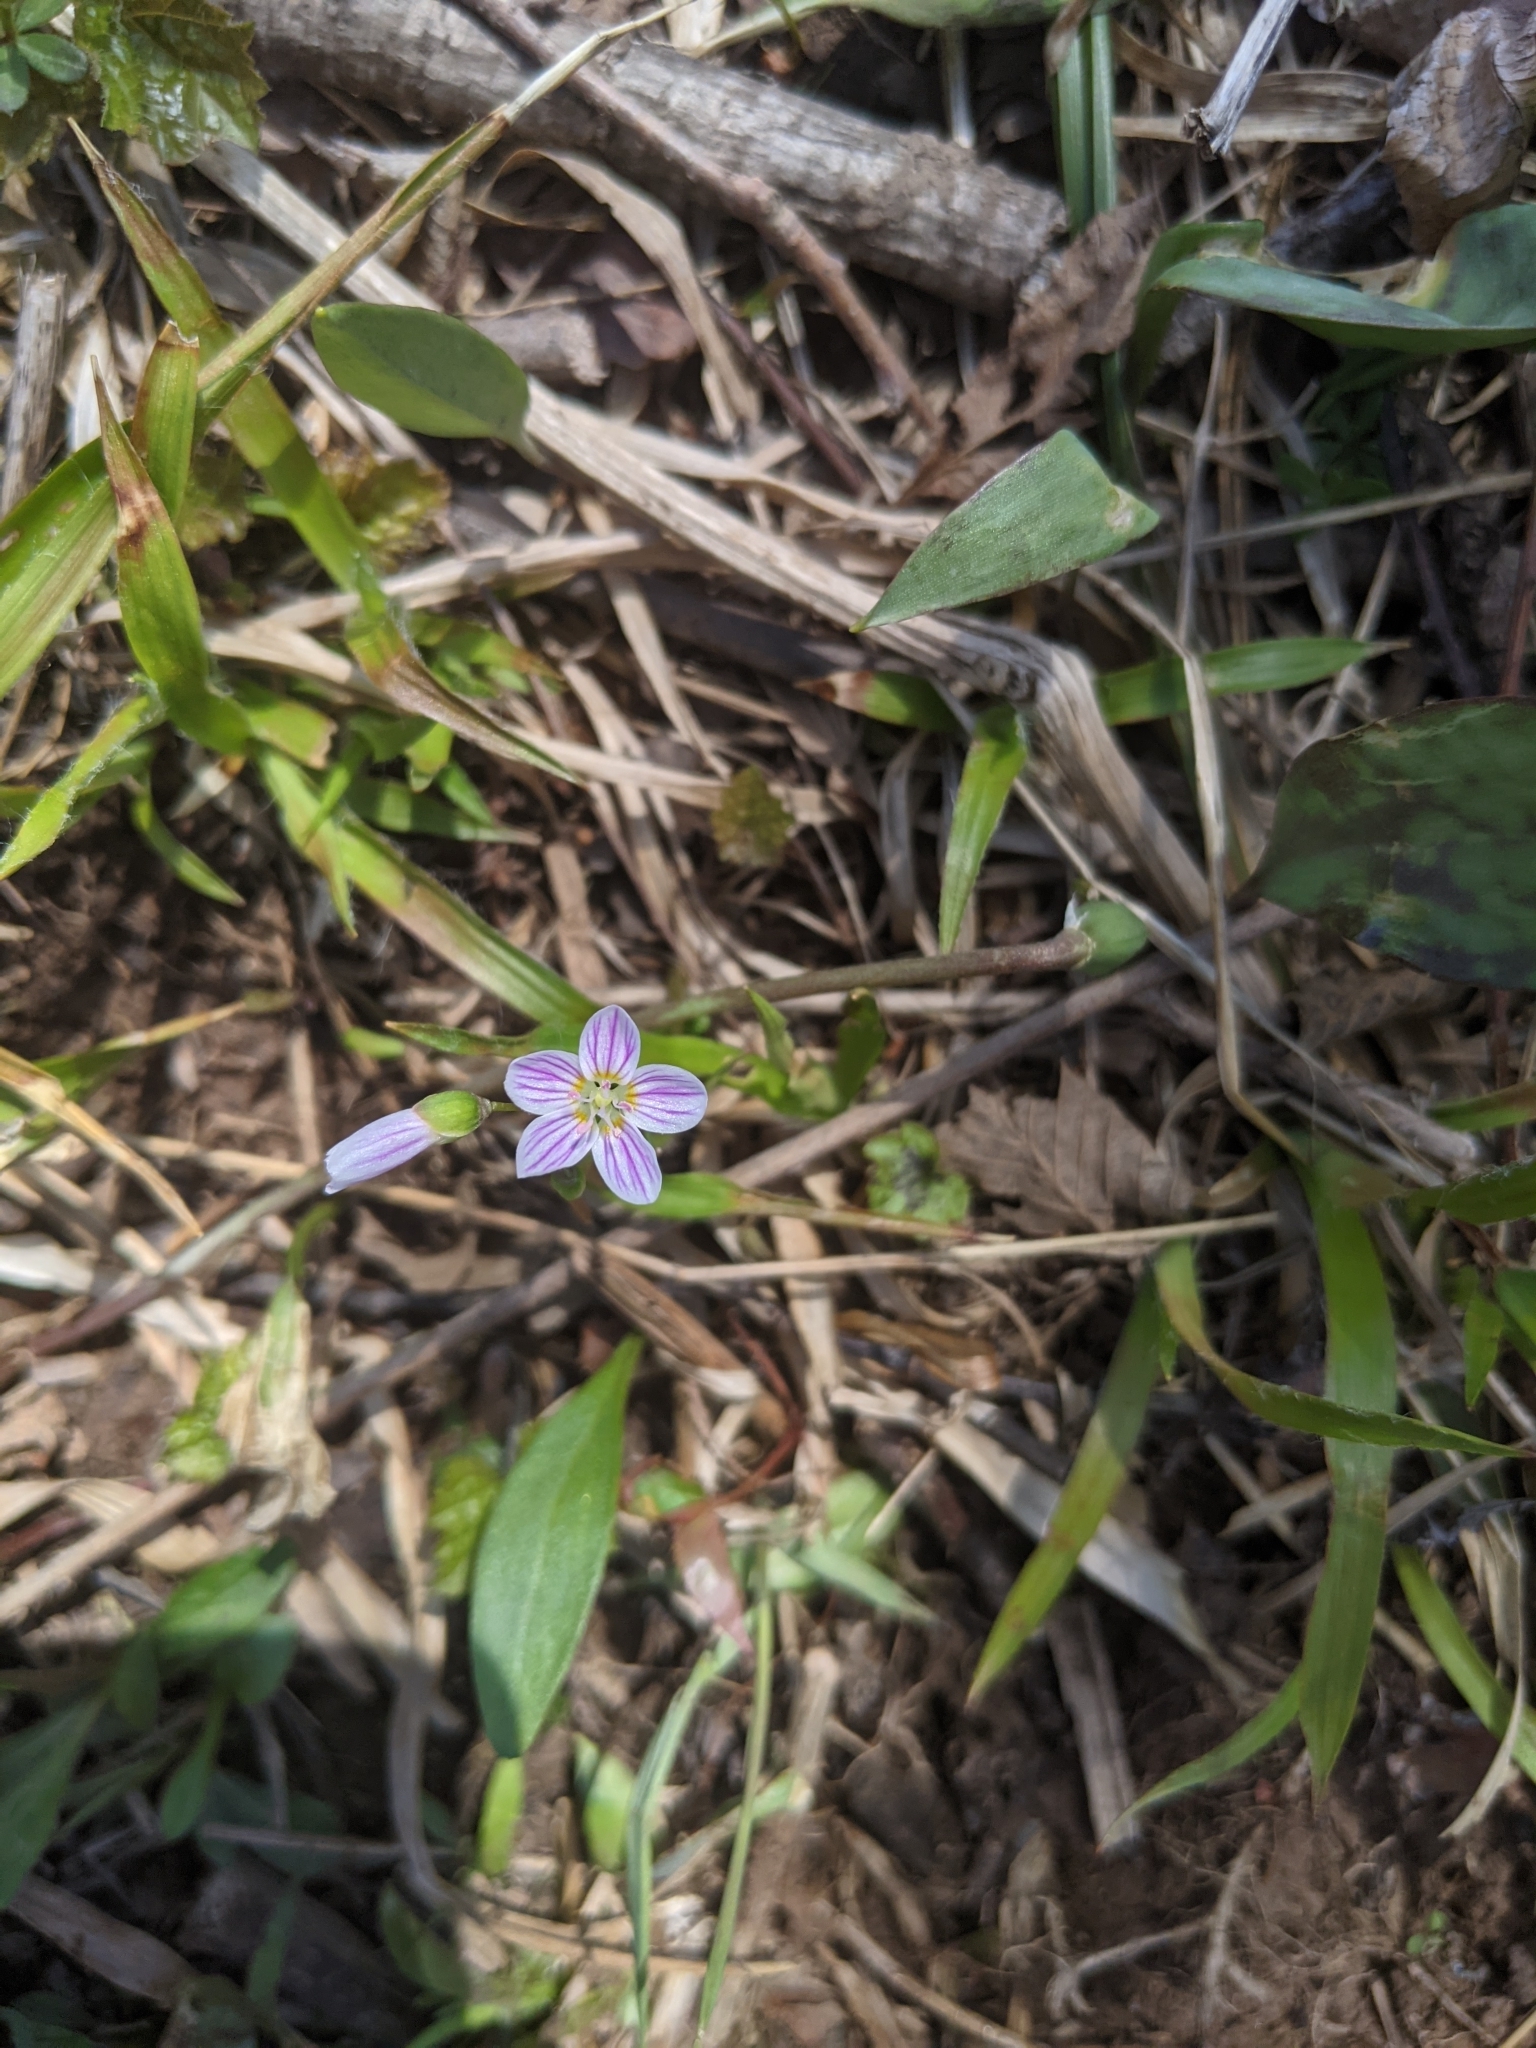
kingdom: Plantae
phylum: Tracheophyta
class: Magnoliopsida
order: Caryophyllales
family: Montiaceae
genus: Claytonia
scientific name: Claytonia caroliniana
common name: Carolina spring beauty
